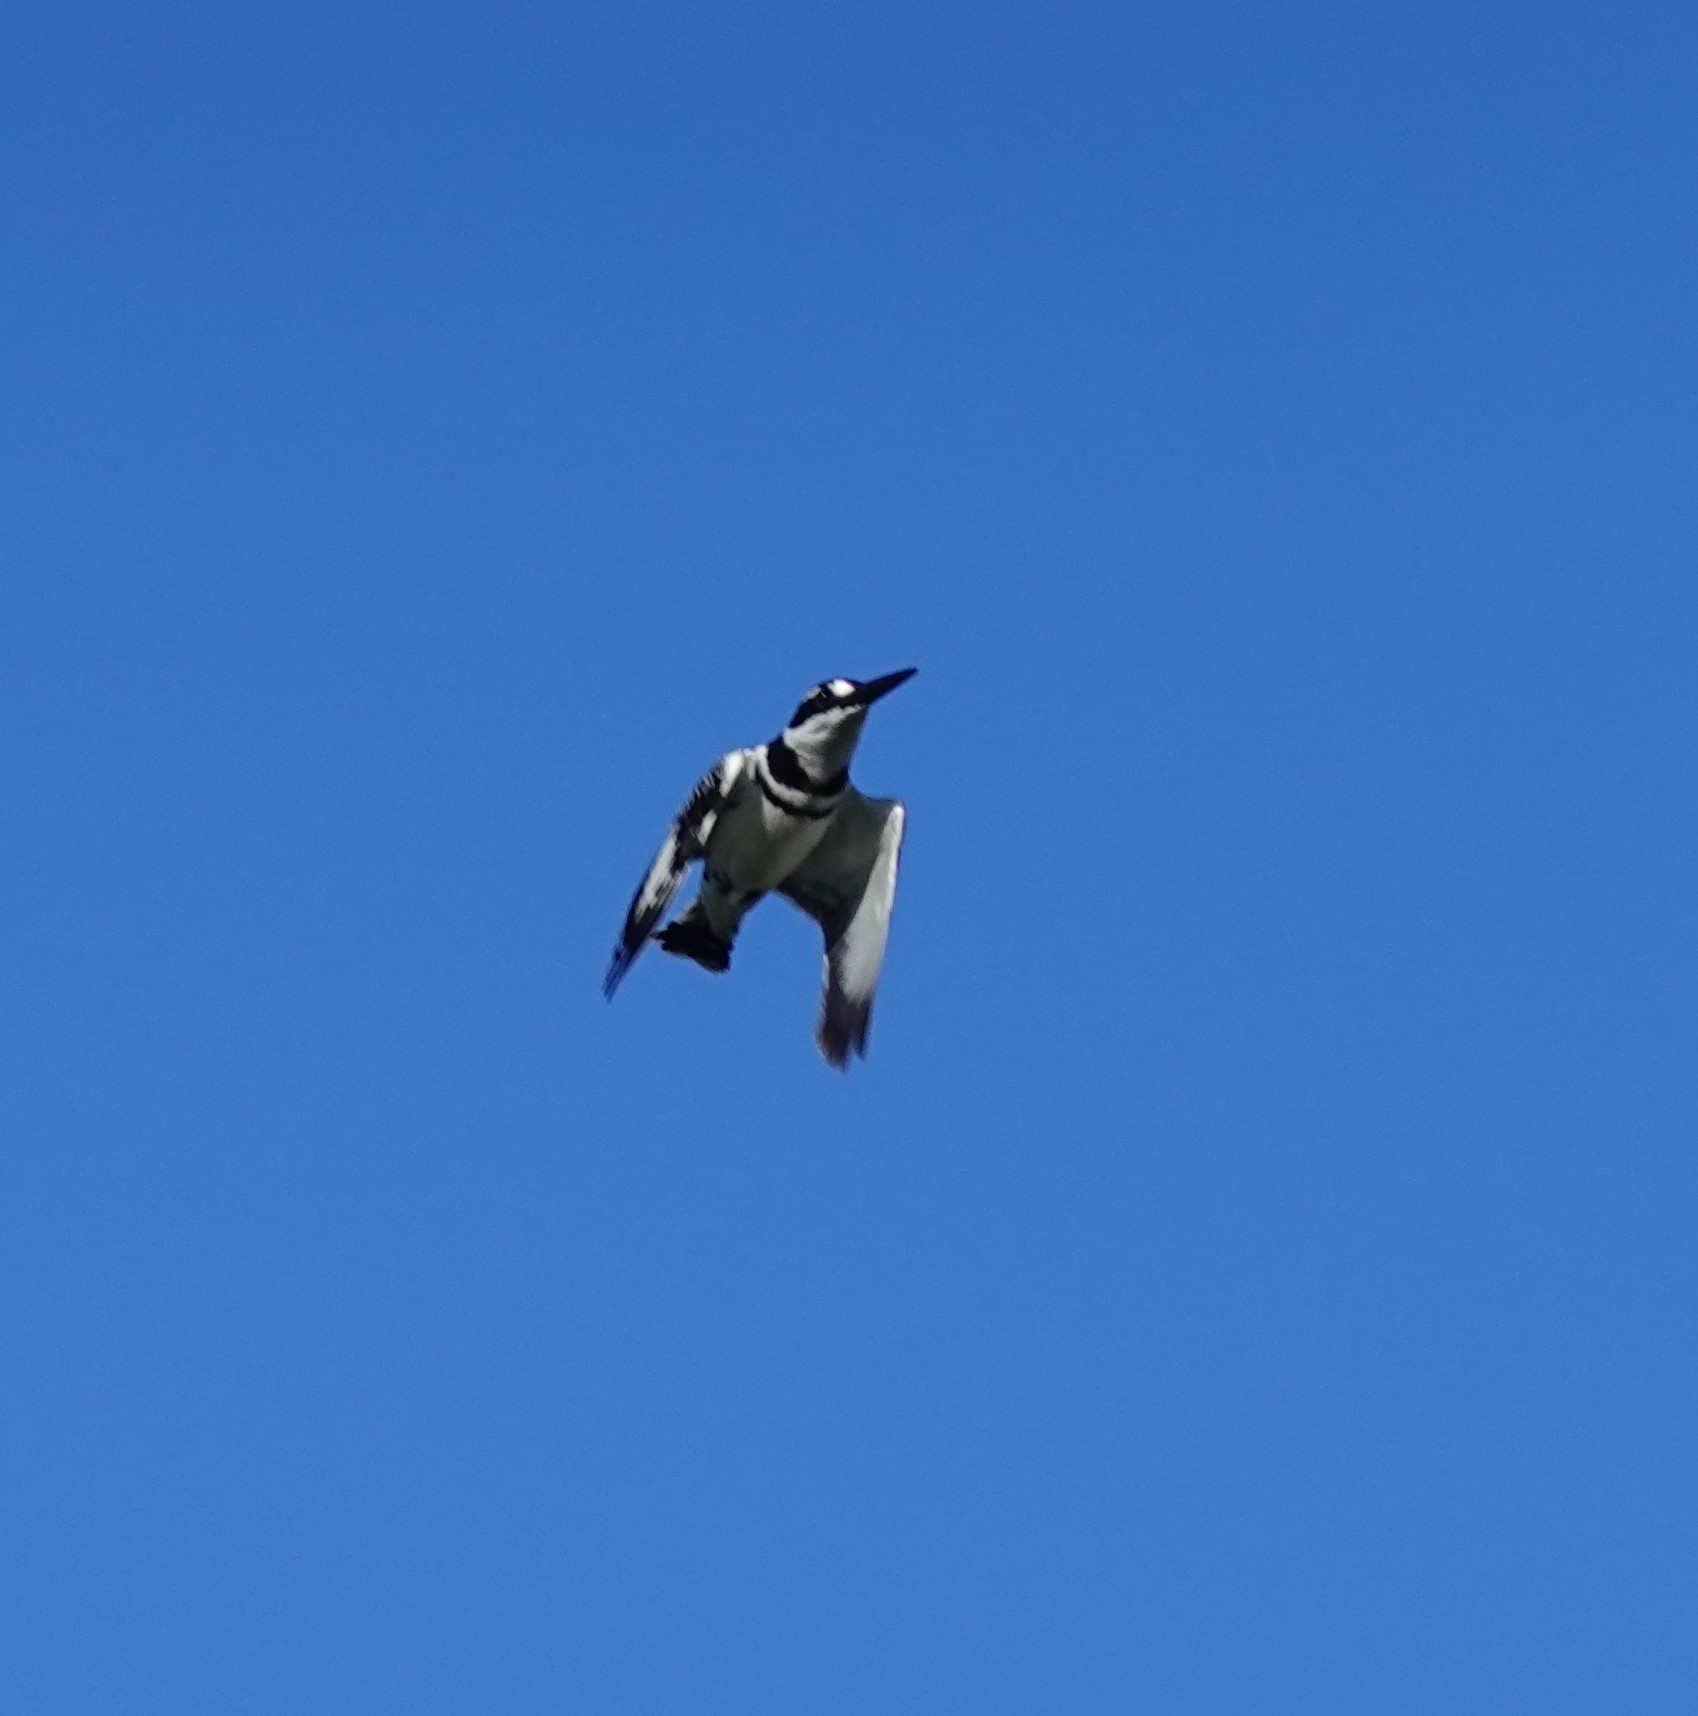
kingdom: Animalia
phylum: Chordata
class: Aves
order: Coraciiformes
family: Alcedinidae
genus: Ceryle
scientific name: Ceryle rudis
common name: Pied kingfisher
